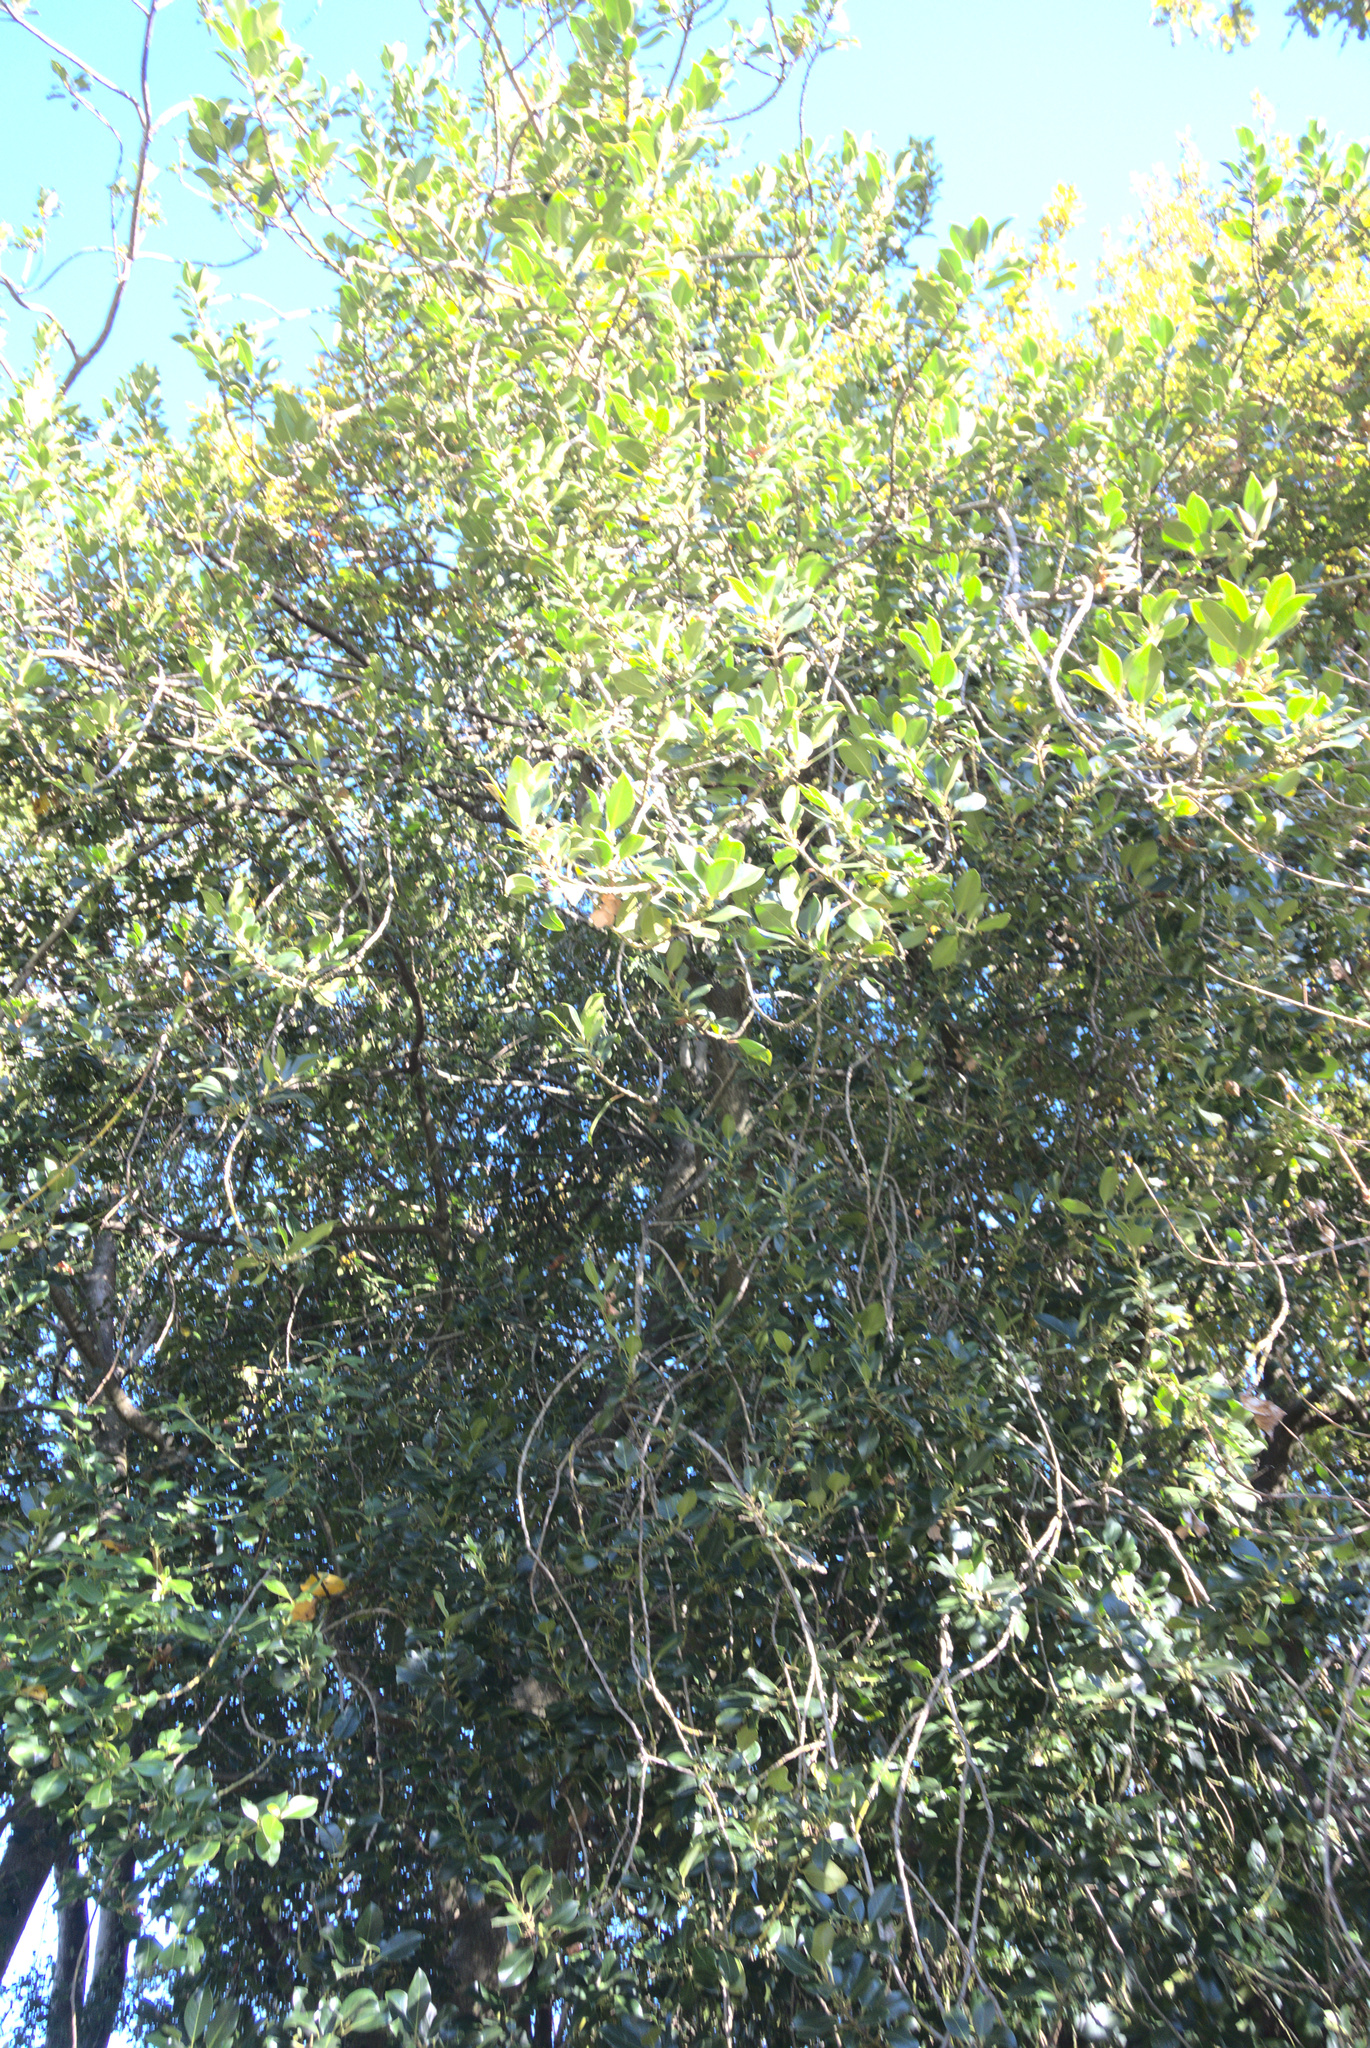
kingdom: Plantae
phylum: Tracheophyta
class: Magnoliopsida
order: Aquifoliales
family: Aquifoliaceae
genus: Ilex
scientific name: Ilex aquifolium
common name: English holly
